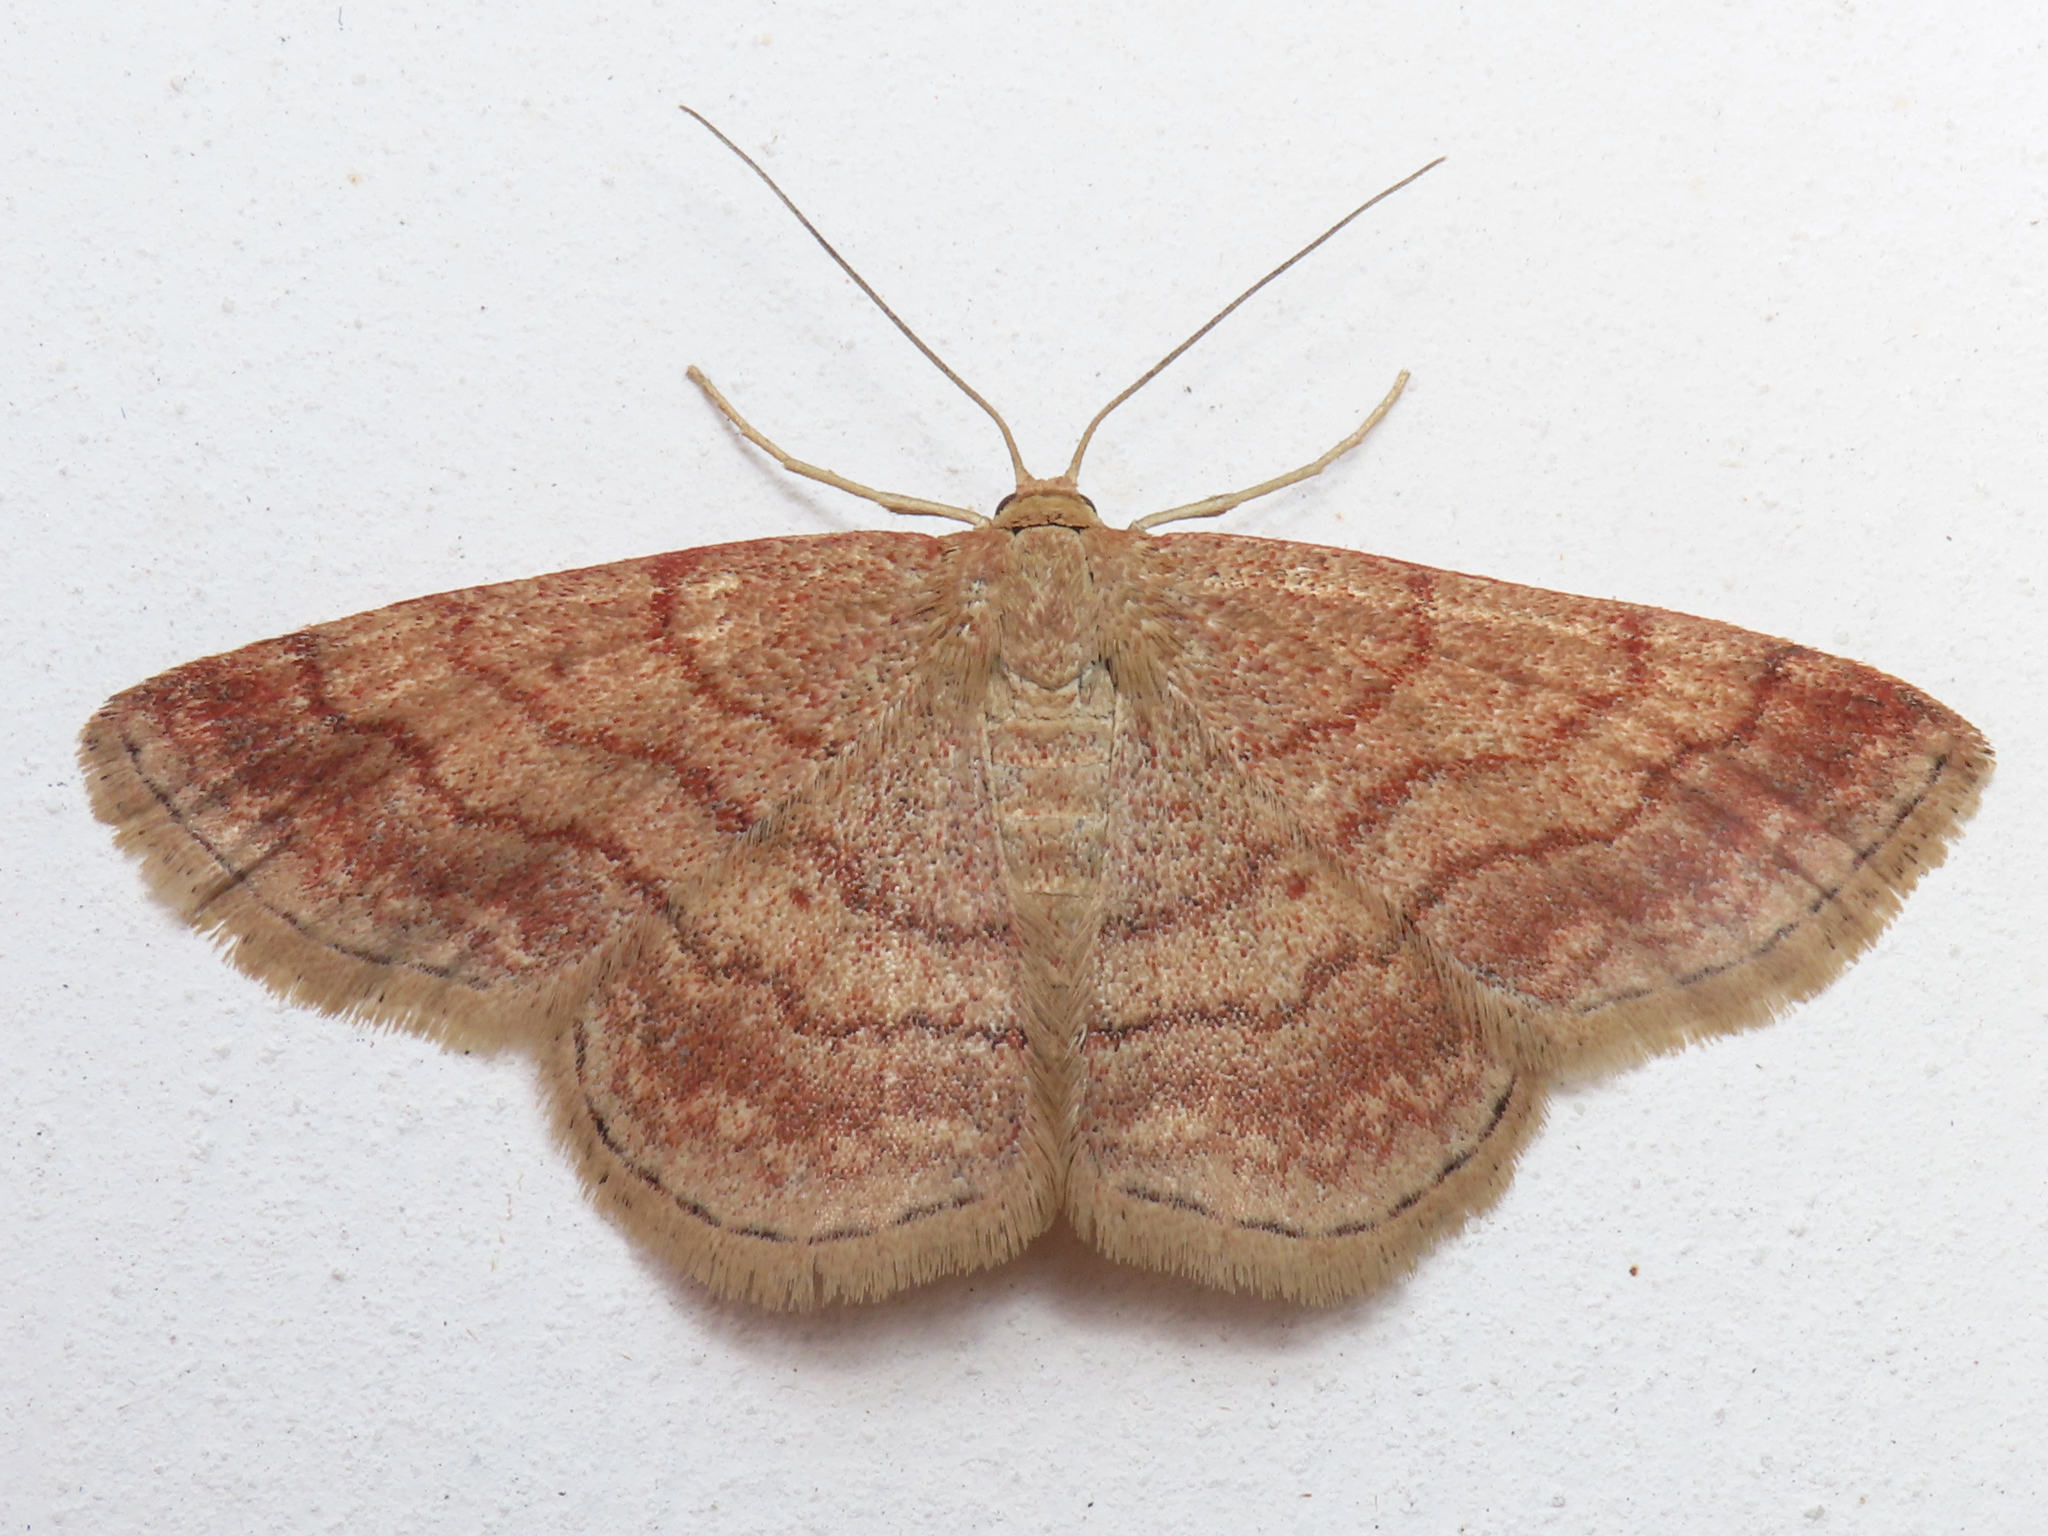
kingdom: Animalia
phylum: Arthropoda
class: Insecta
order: Lepidoptera
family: Geometridae
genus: Scopula
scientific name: Scopula rubiginata
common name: Tawny wave
